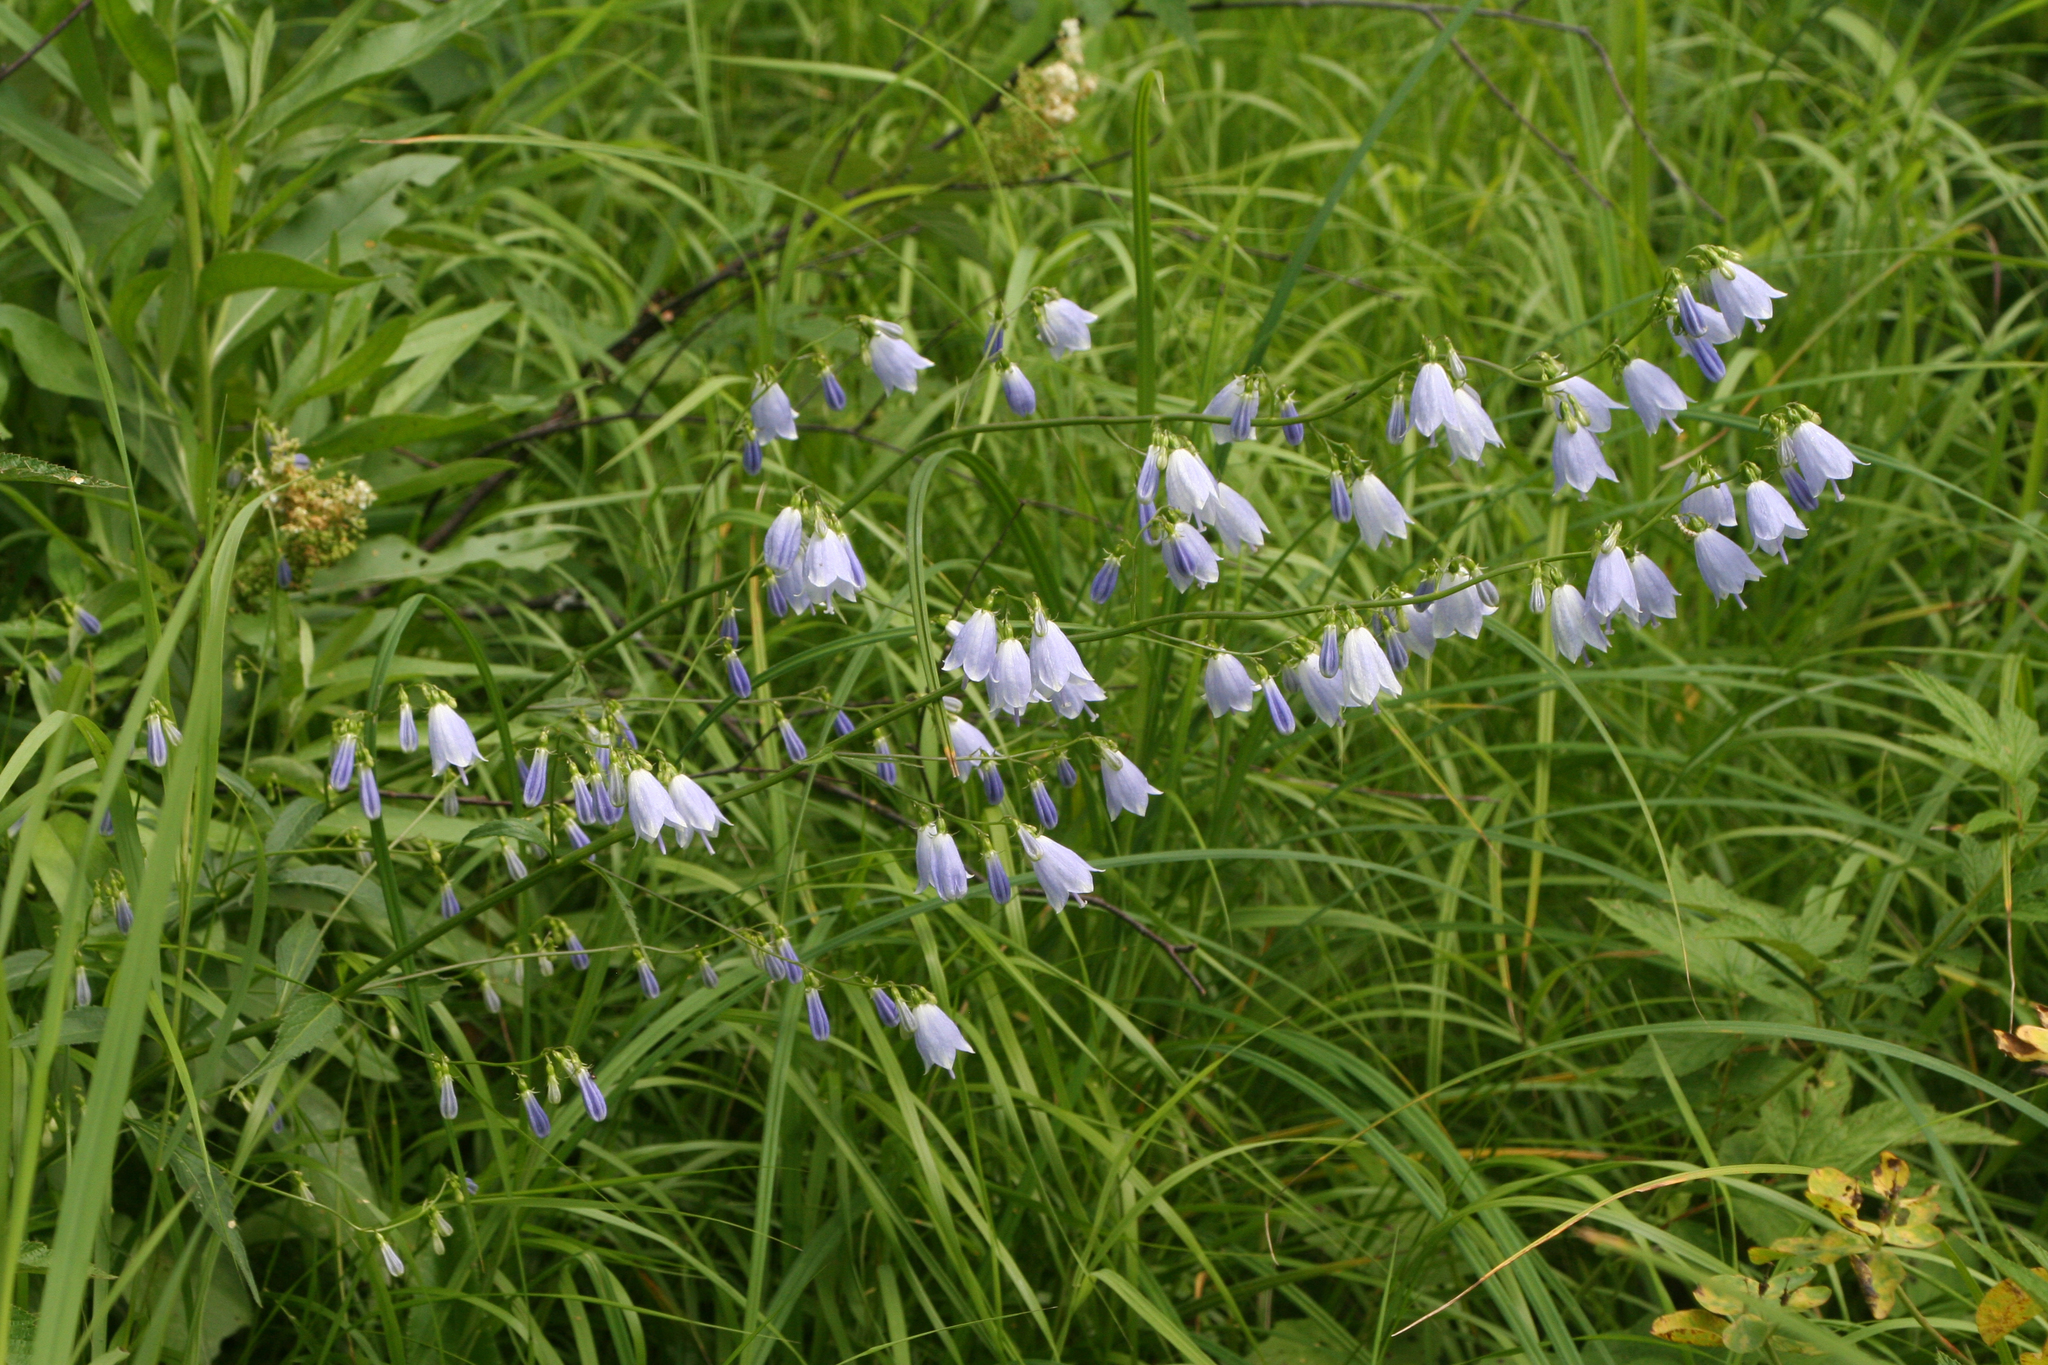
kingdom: Plantae
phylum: Tracheophyta
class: Magnoliopsida
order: Asterales
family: Campanulaceae
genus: Adenophora
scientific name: Adenophora liliifolia
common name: Lilyleaf ladybells
